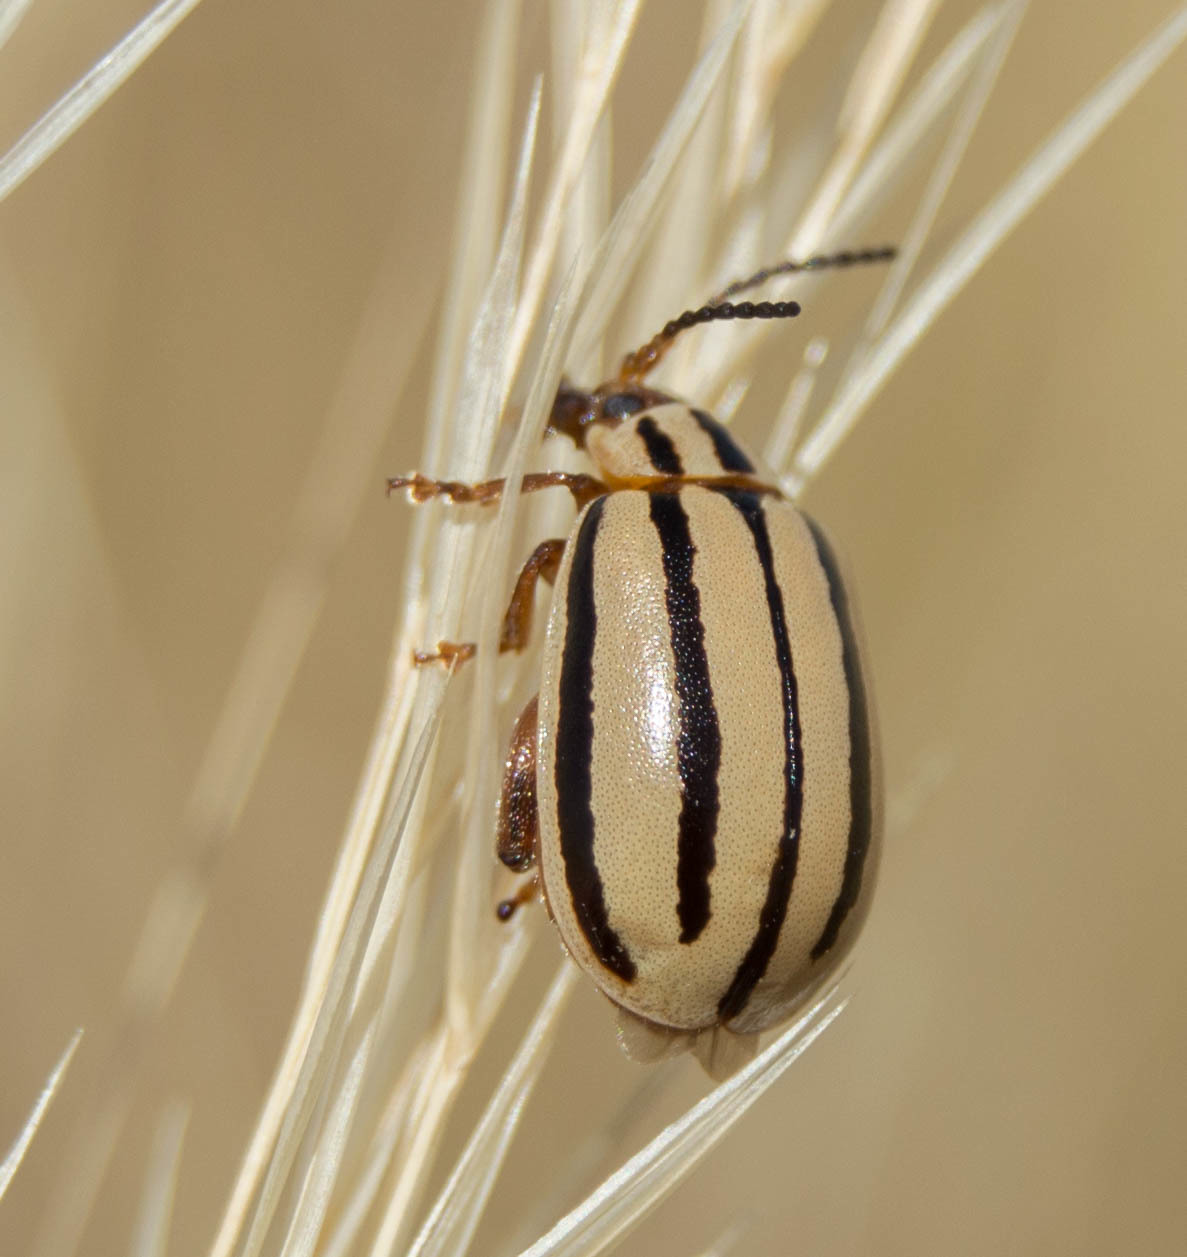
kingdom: Animalia
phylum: Arthropoda
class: Insecta
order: Coleoptera
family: Chrysomelidae
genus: Kuschelina
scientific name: Kuschelina
